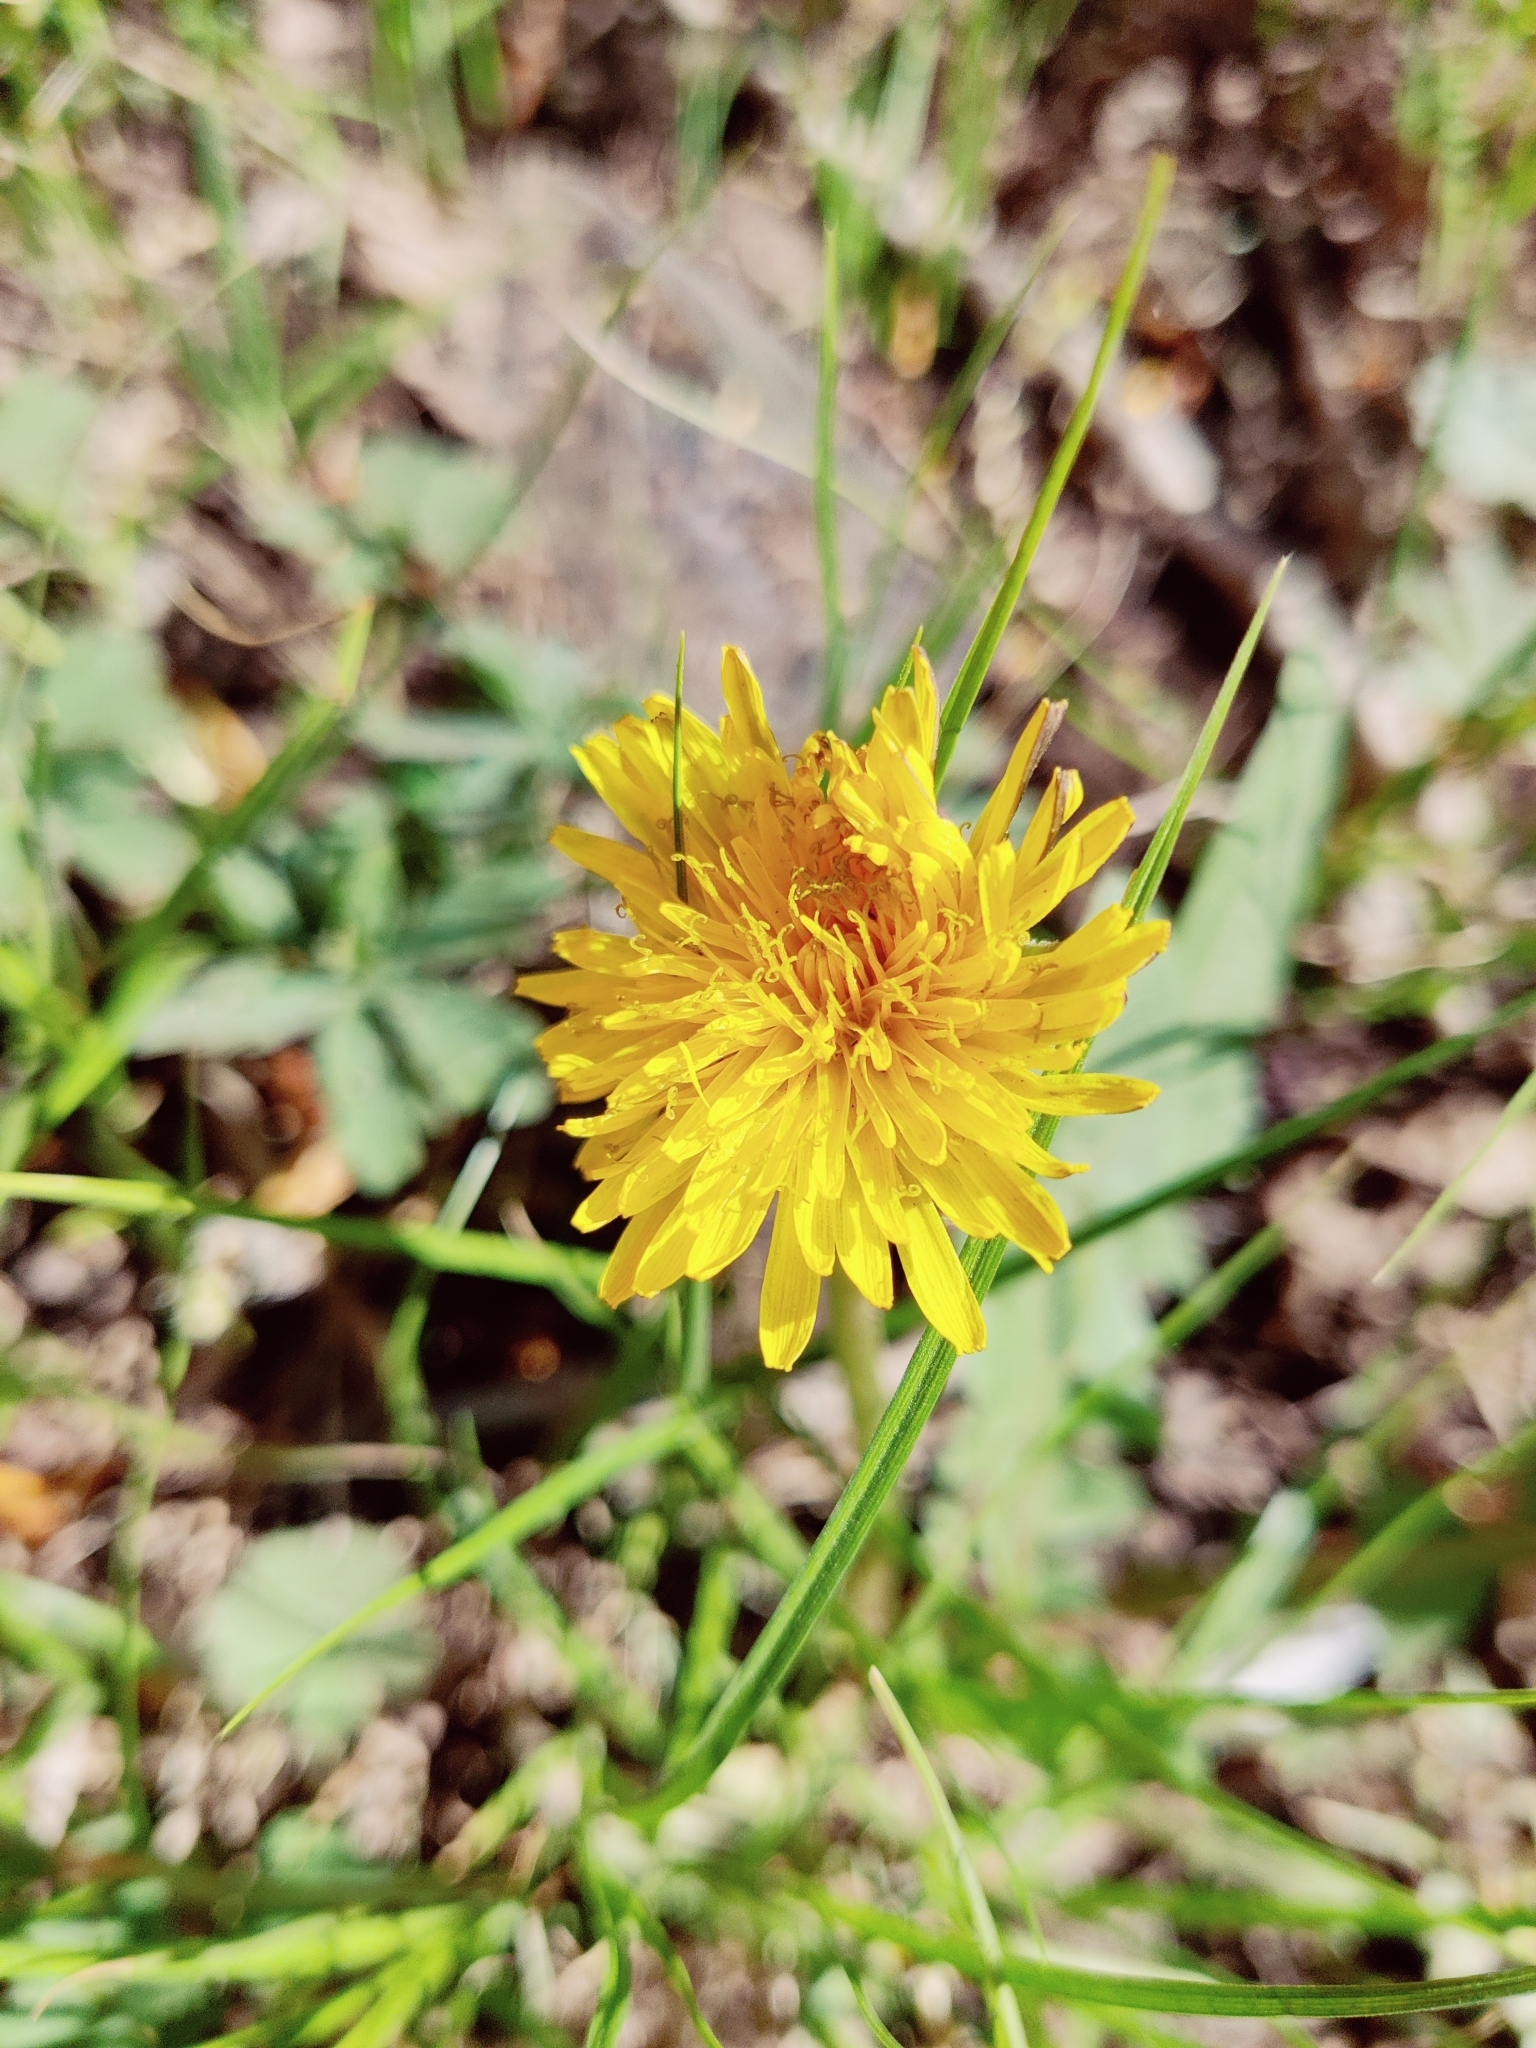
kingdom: Plantae
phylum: Tracheophyta
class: Magnoliopsida
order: Asterales
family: Asteraceae
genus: Taraxacum
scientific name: Taraxacum officinale
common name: Common dandelion
